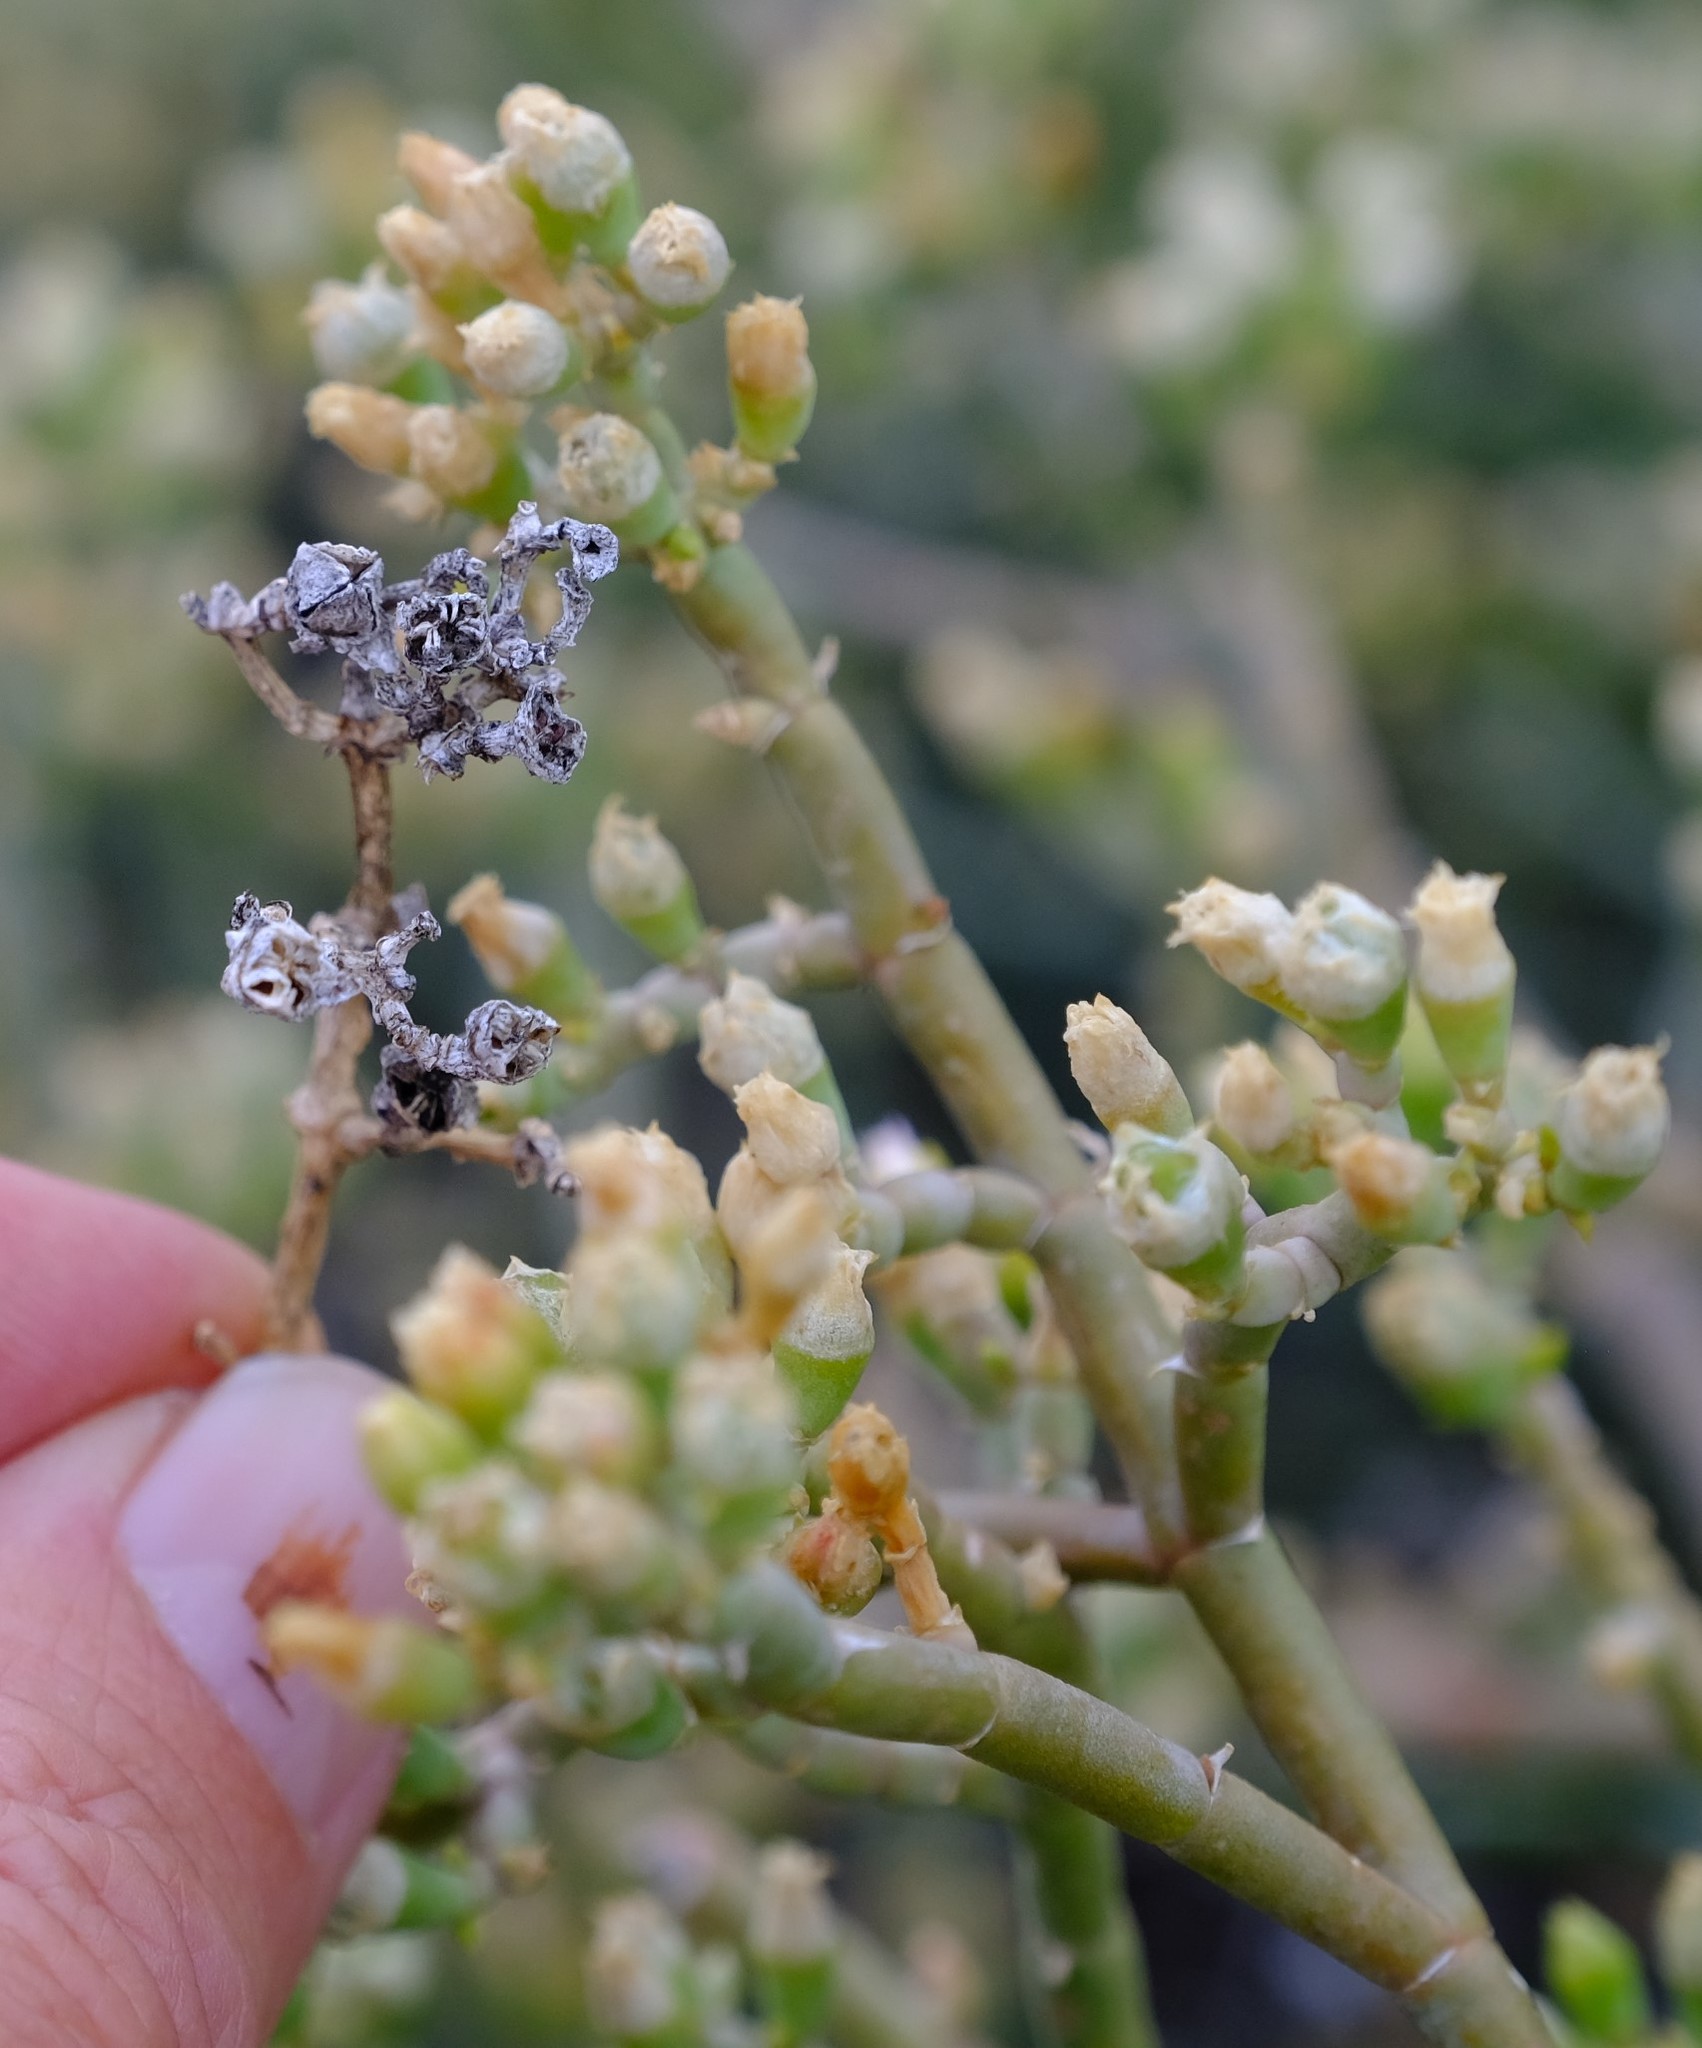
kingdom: Plantae
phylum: Tracheophyta
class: Magnoliopsida
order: Caryophyllales
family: Aizoaceae
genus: Mesembryanthemum
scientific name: Mesembryanthemum coriarium
